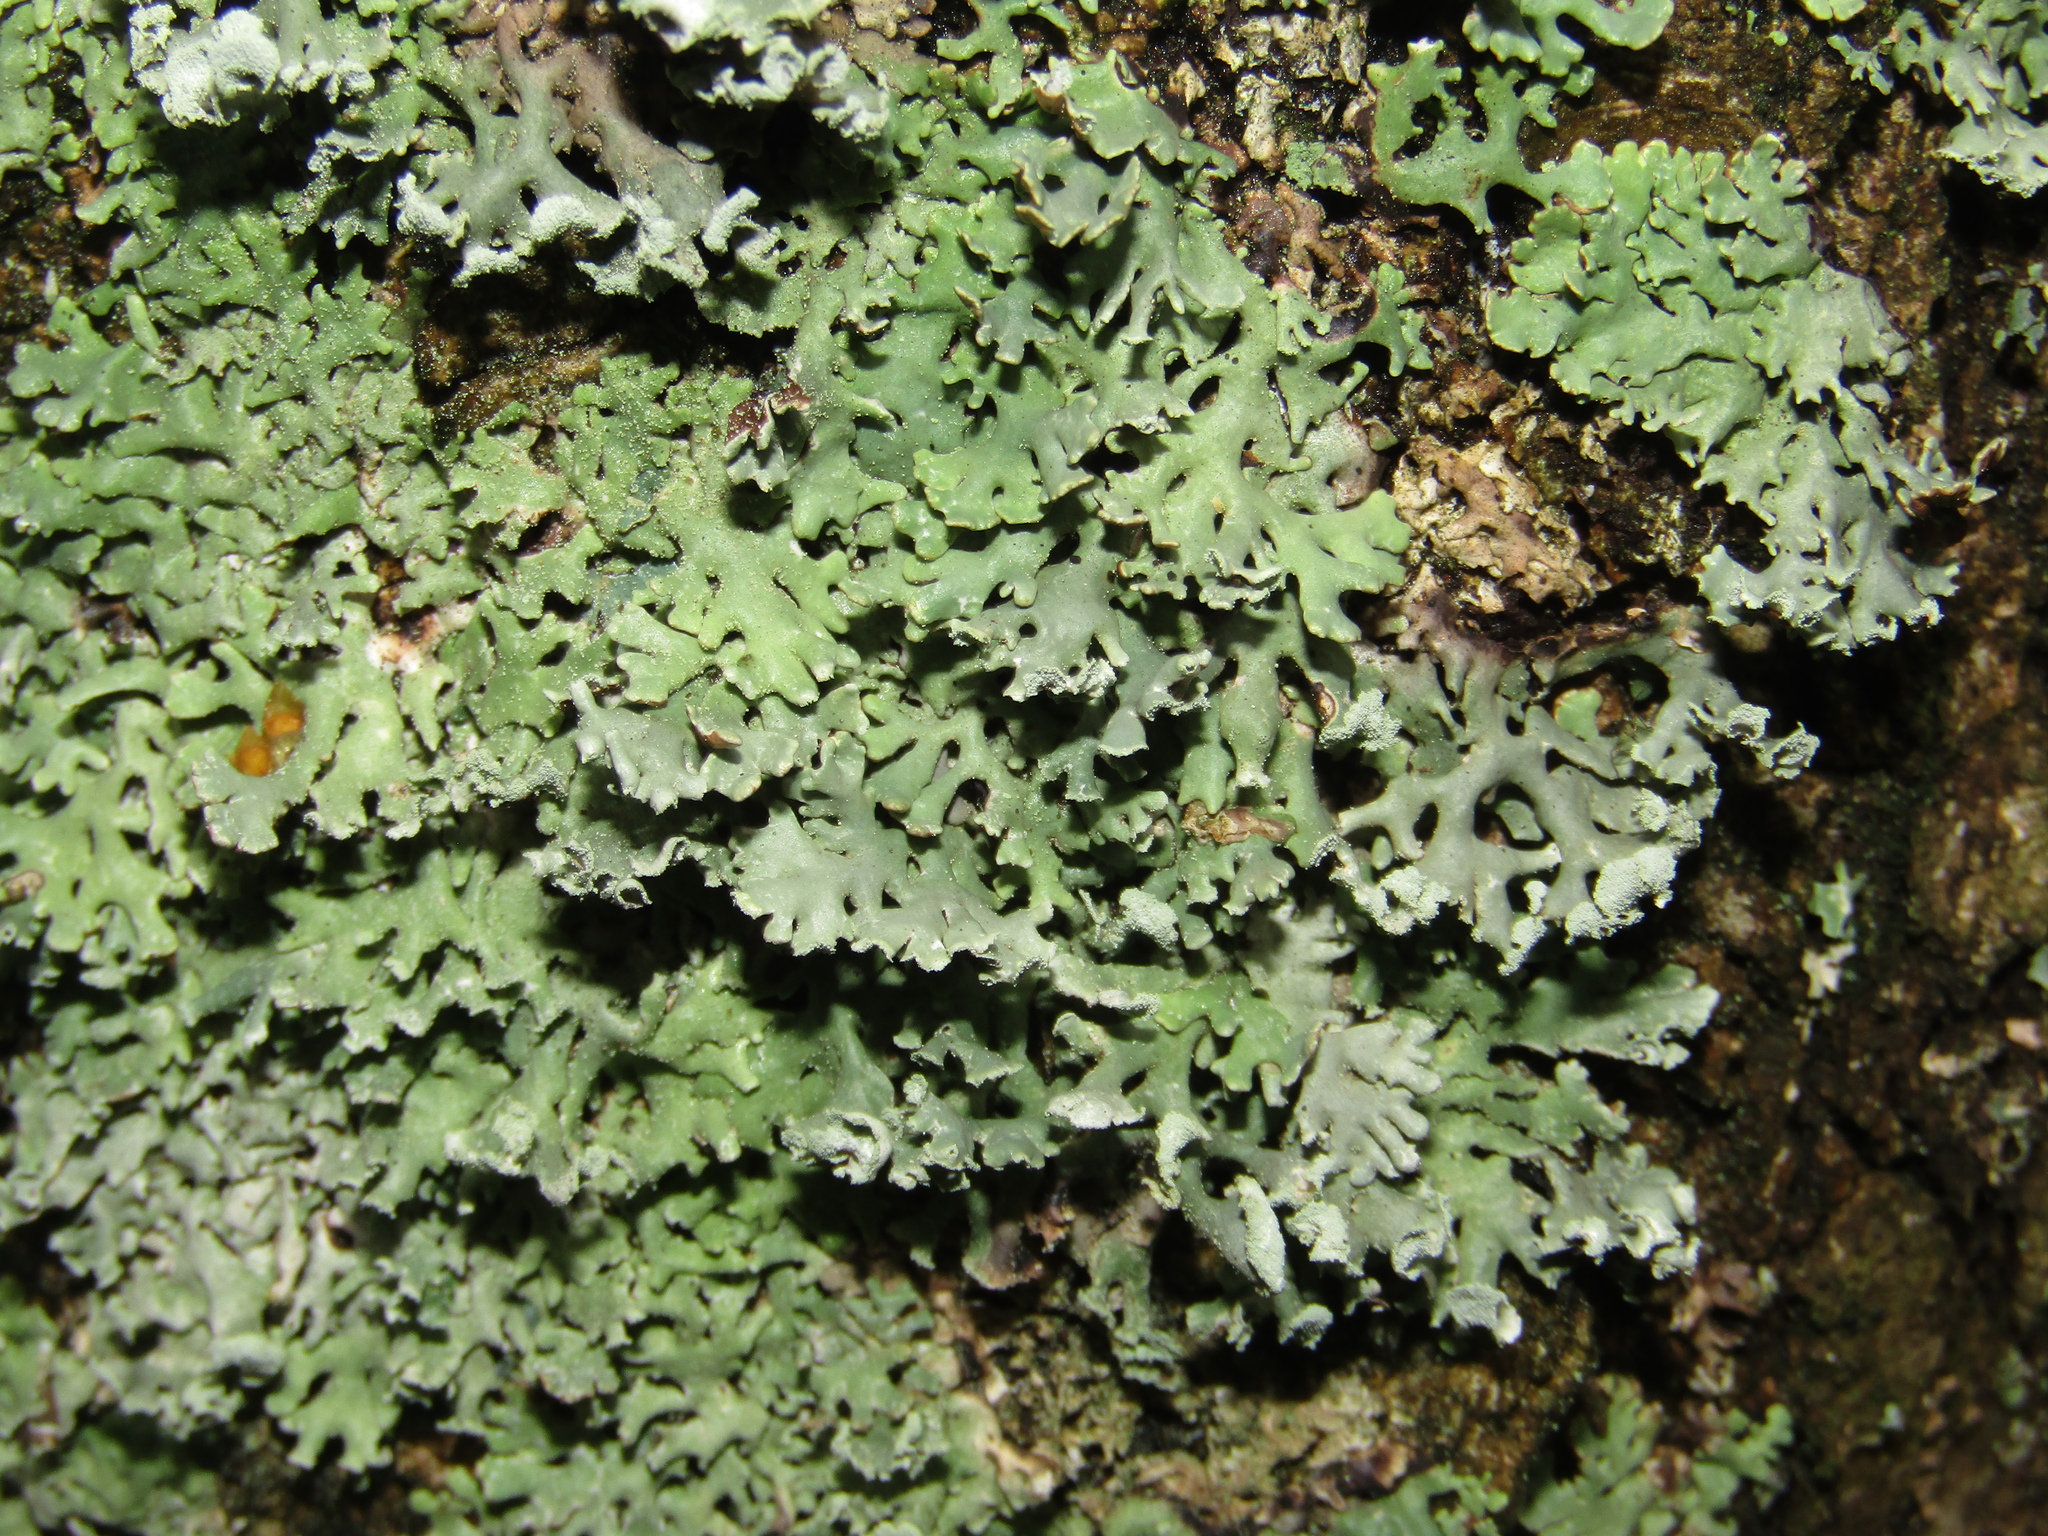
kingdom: Fungi
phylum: Ascomycota
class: Lecanoromycetes
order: Lecanorales
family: Parmeliaceae
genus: Hypogymnia
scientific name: Hypogymnia physodes
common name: Dark crottle
